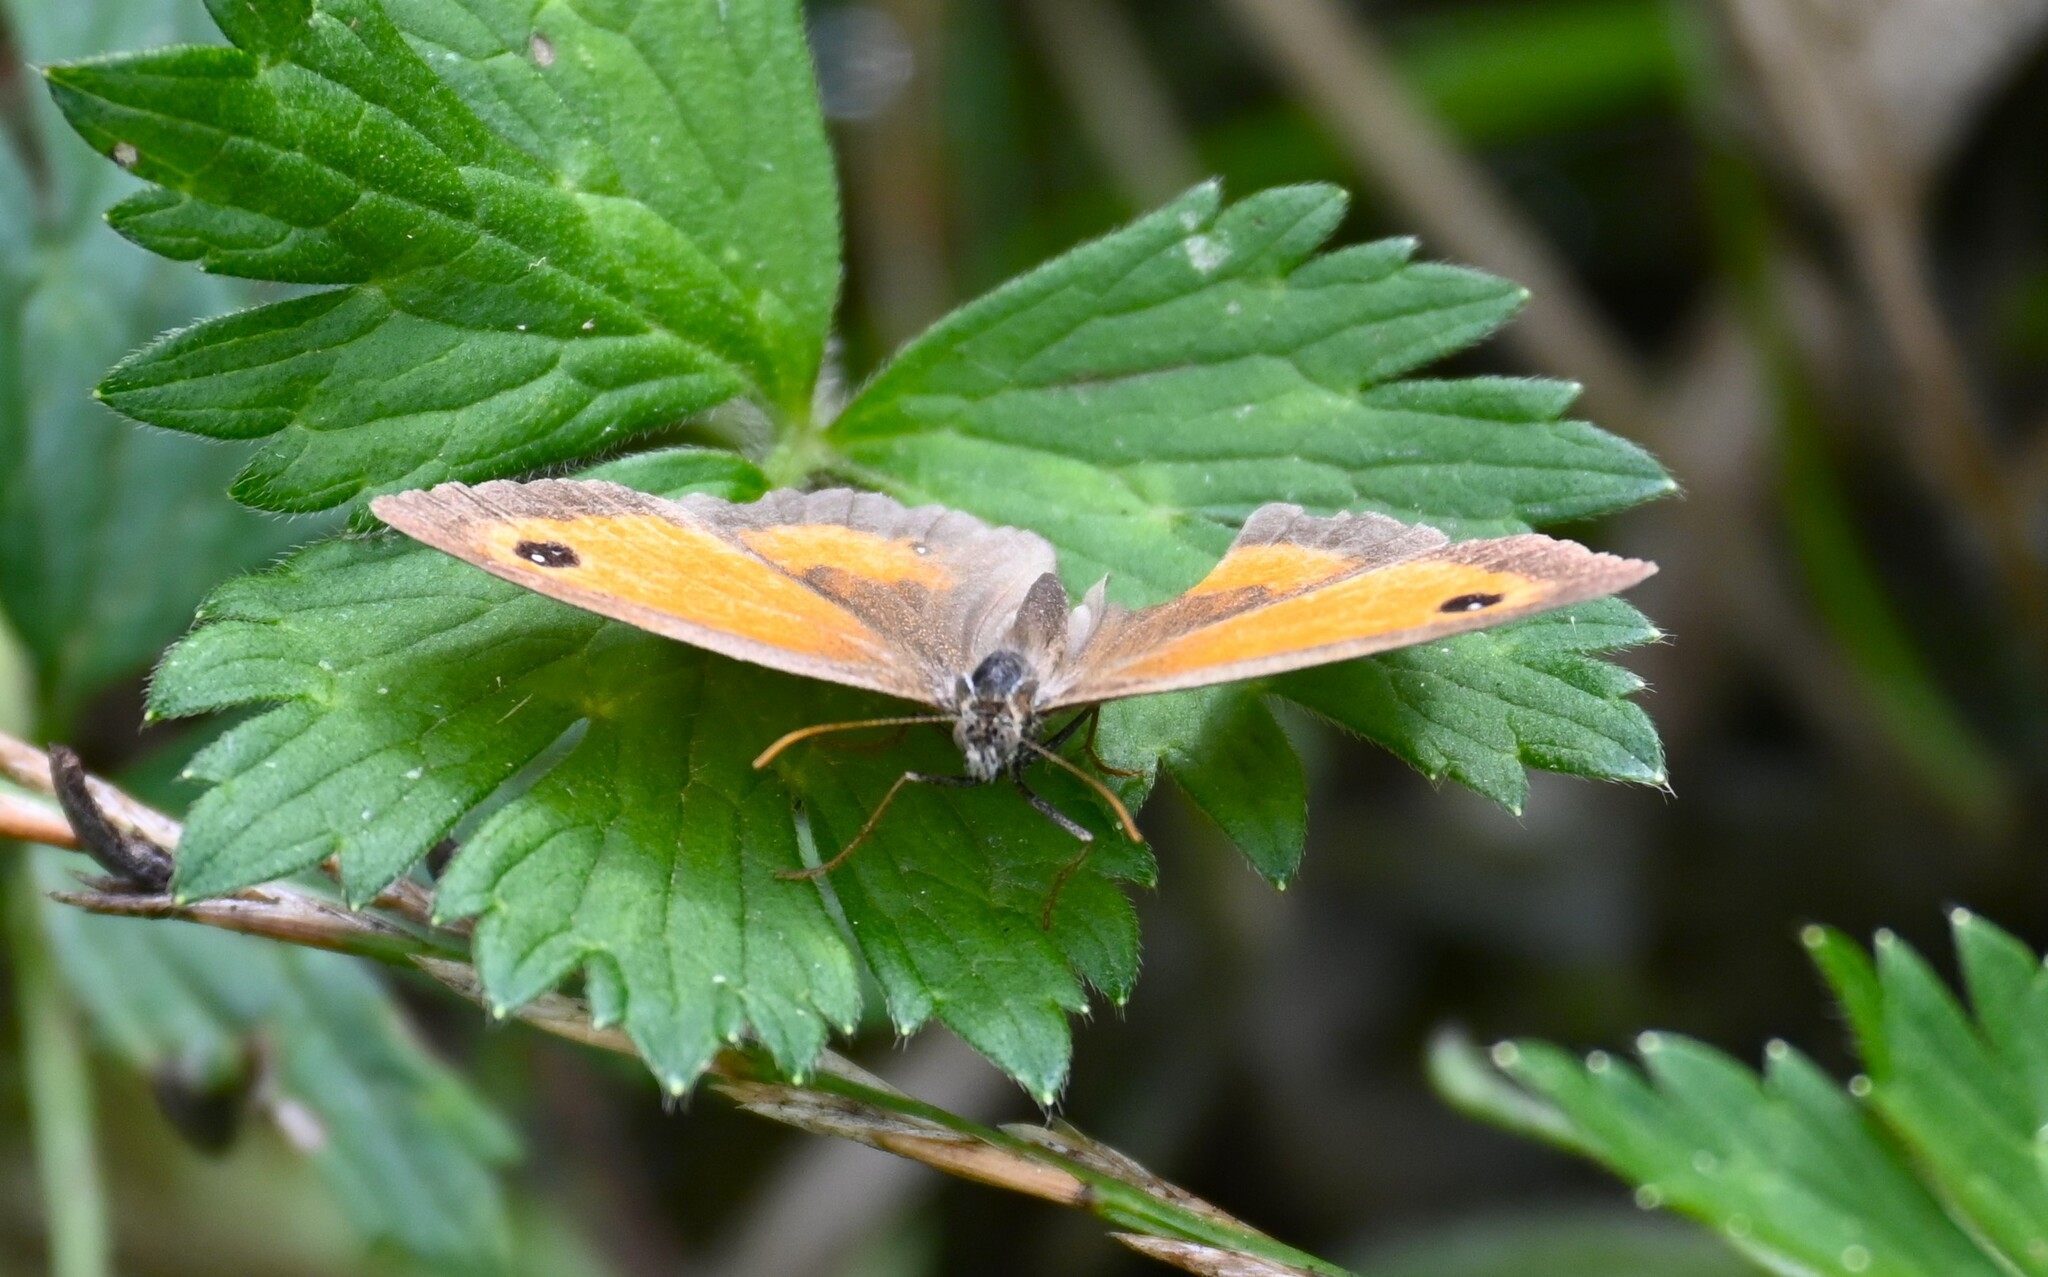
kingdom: Animalia
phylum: Arthropoda
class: Insecta
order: Lepidoptera
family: Nymphalidae
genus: Pyronia
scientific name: Pyronia tithonus
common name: Gatekeeper
